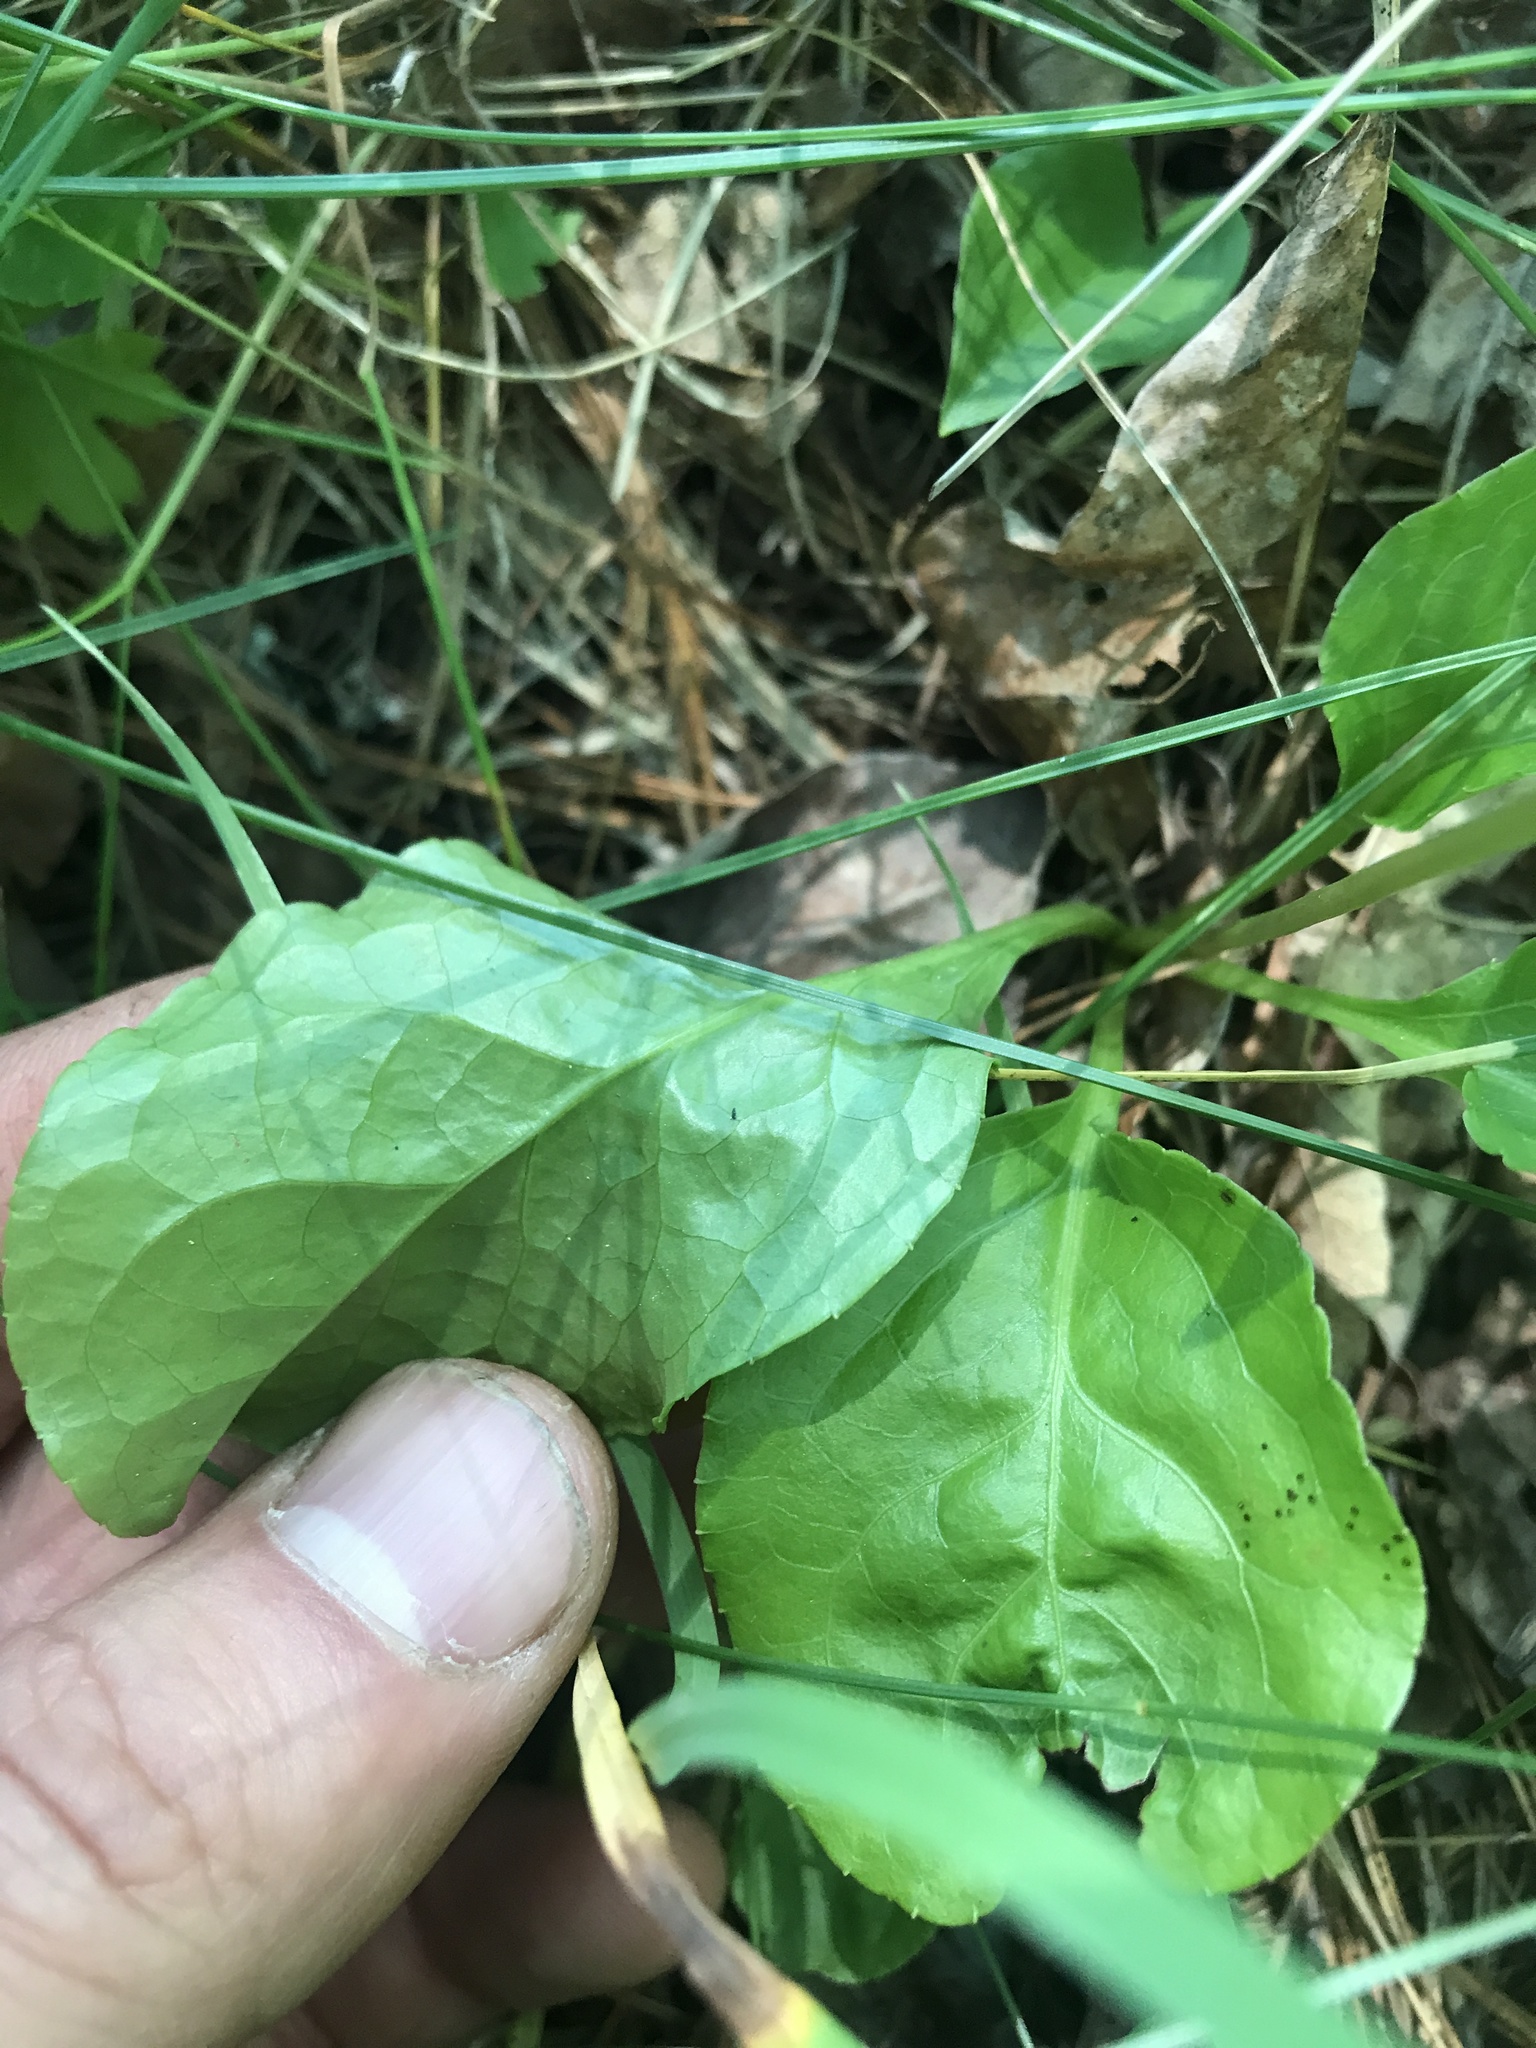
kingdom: Plantae
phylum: Tracheophyta
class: Magnoliopsida
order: Ericales
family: Ericaceae
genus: Pyrola
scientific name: Pyrola elliptica
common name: Shinleaf
